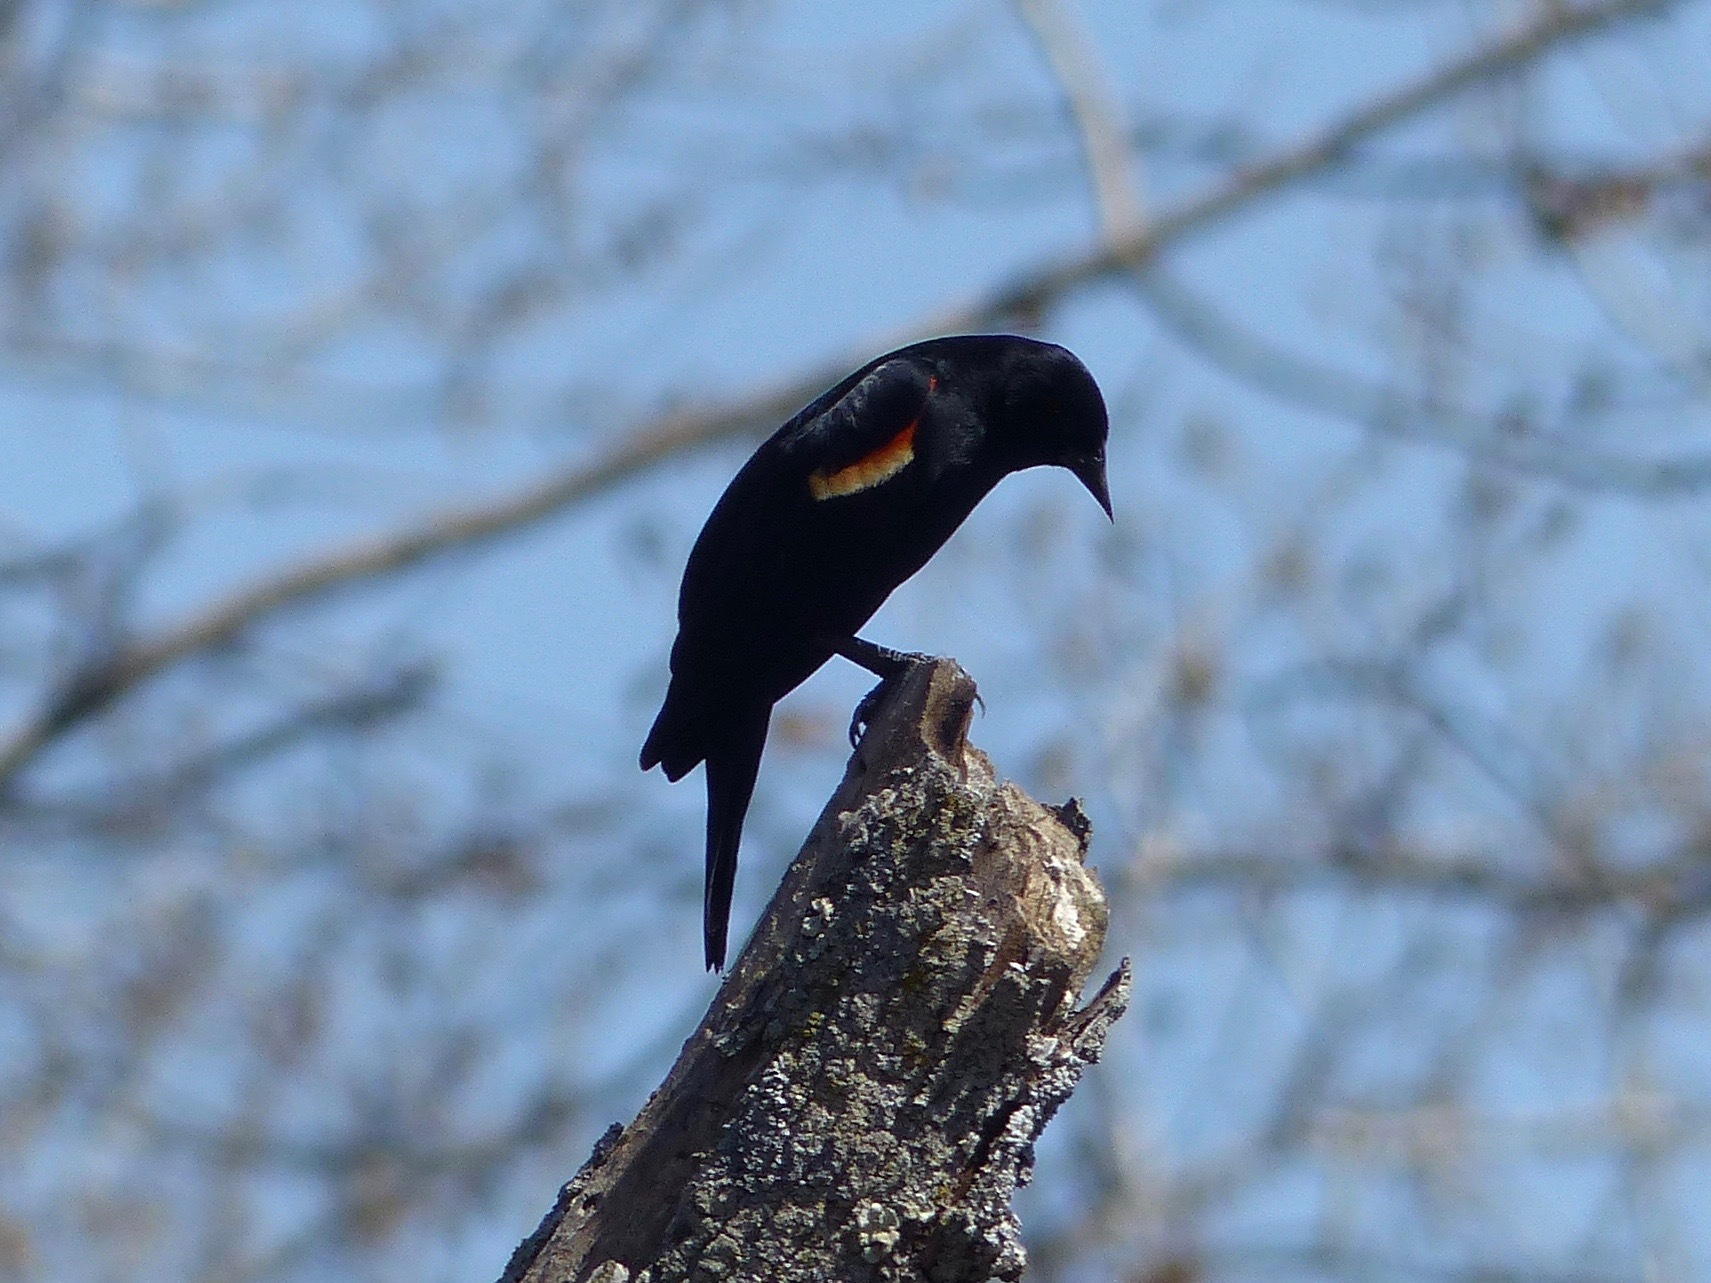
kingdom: Animalia
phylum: Chordata
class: Aves
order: Passeriformes
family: Icteridae
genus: Agelaius
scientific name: Agelaius phoeniceus
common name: Red-winged blackbird
